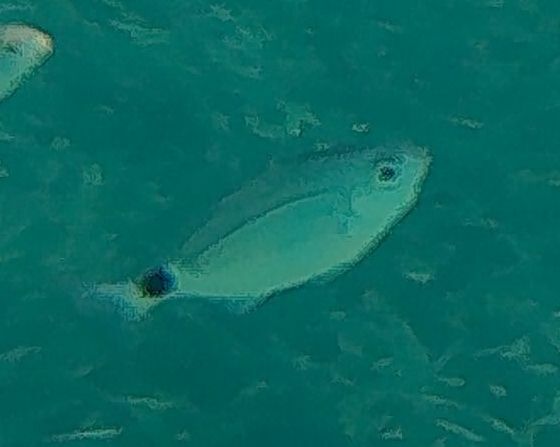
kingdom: Animalia
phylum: Chordata
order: Perciformes
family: Sparidae
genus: Oblada
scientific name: Oblada melanura
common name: Saddled seabream
